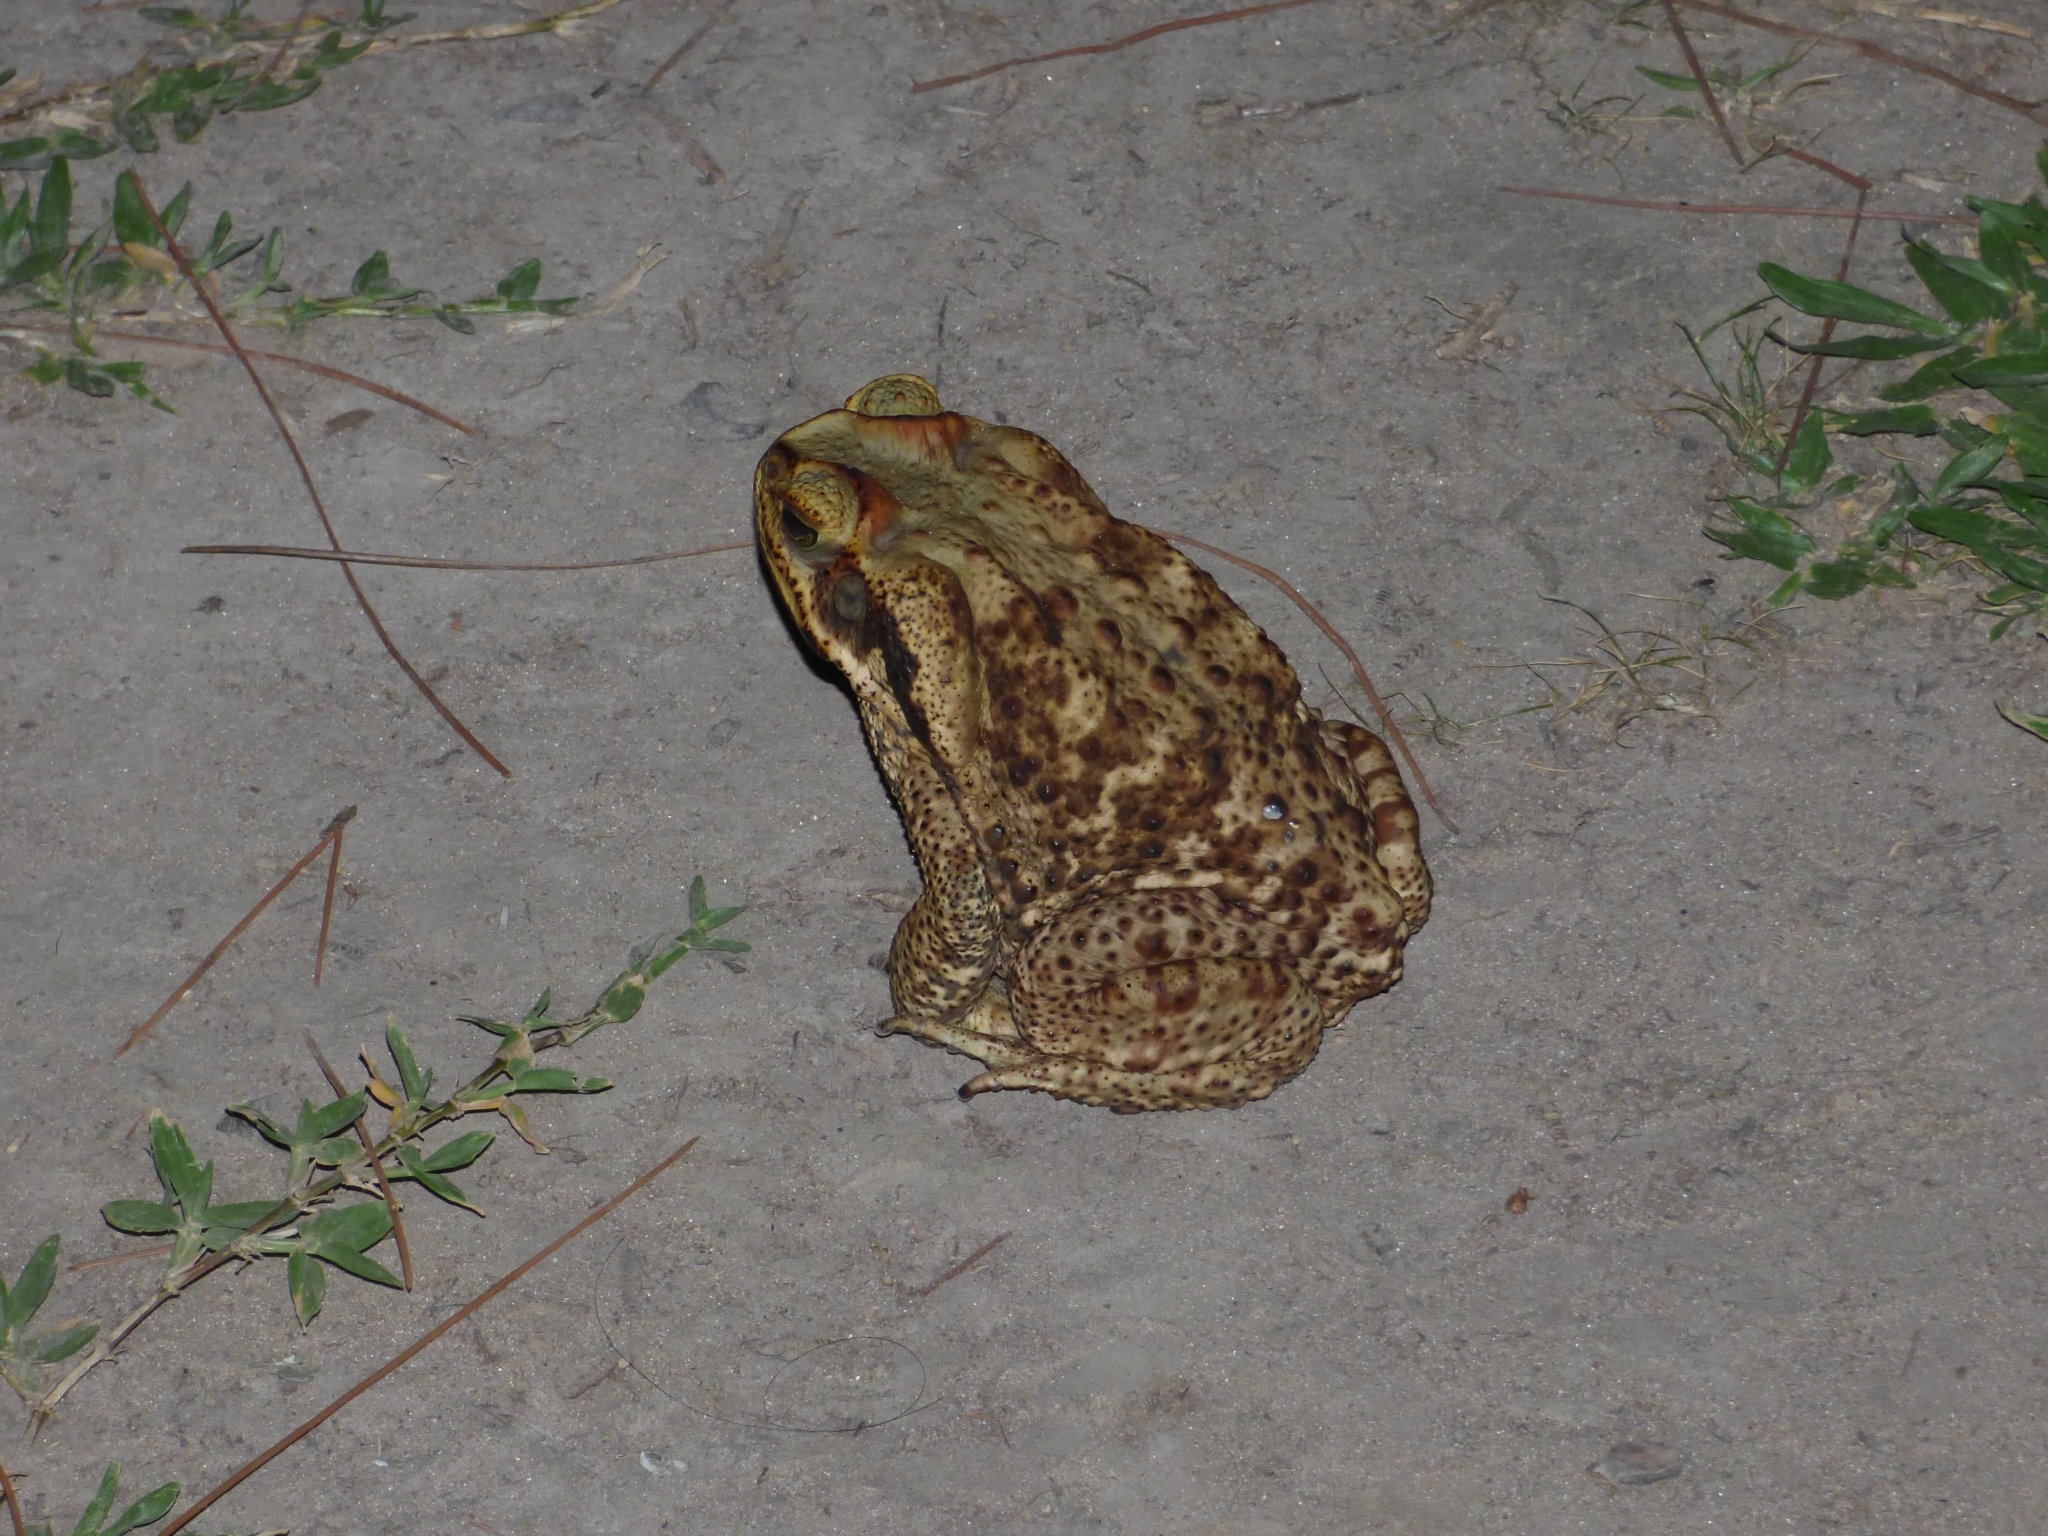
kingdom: Animalia
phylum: Chordata
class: Amphibia
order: Anura
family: Bufonidae
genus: Rhinella
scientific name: Rhinella diptycha
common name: Cope's toad
